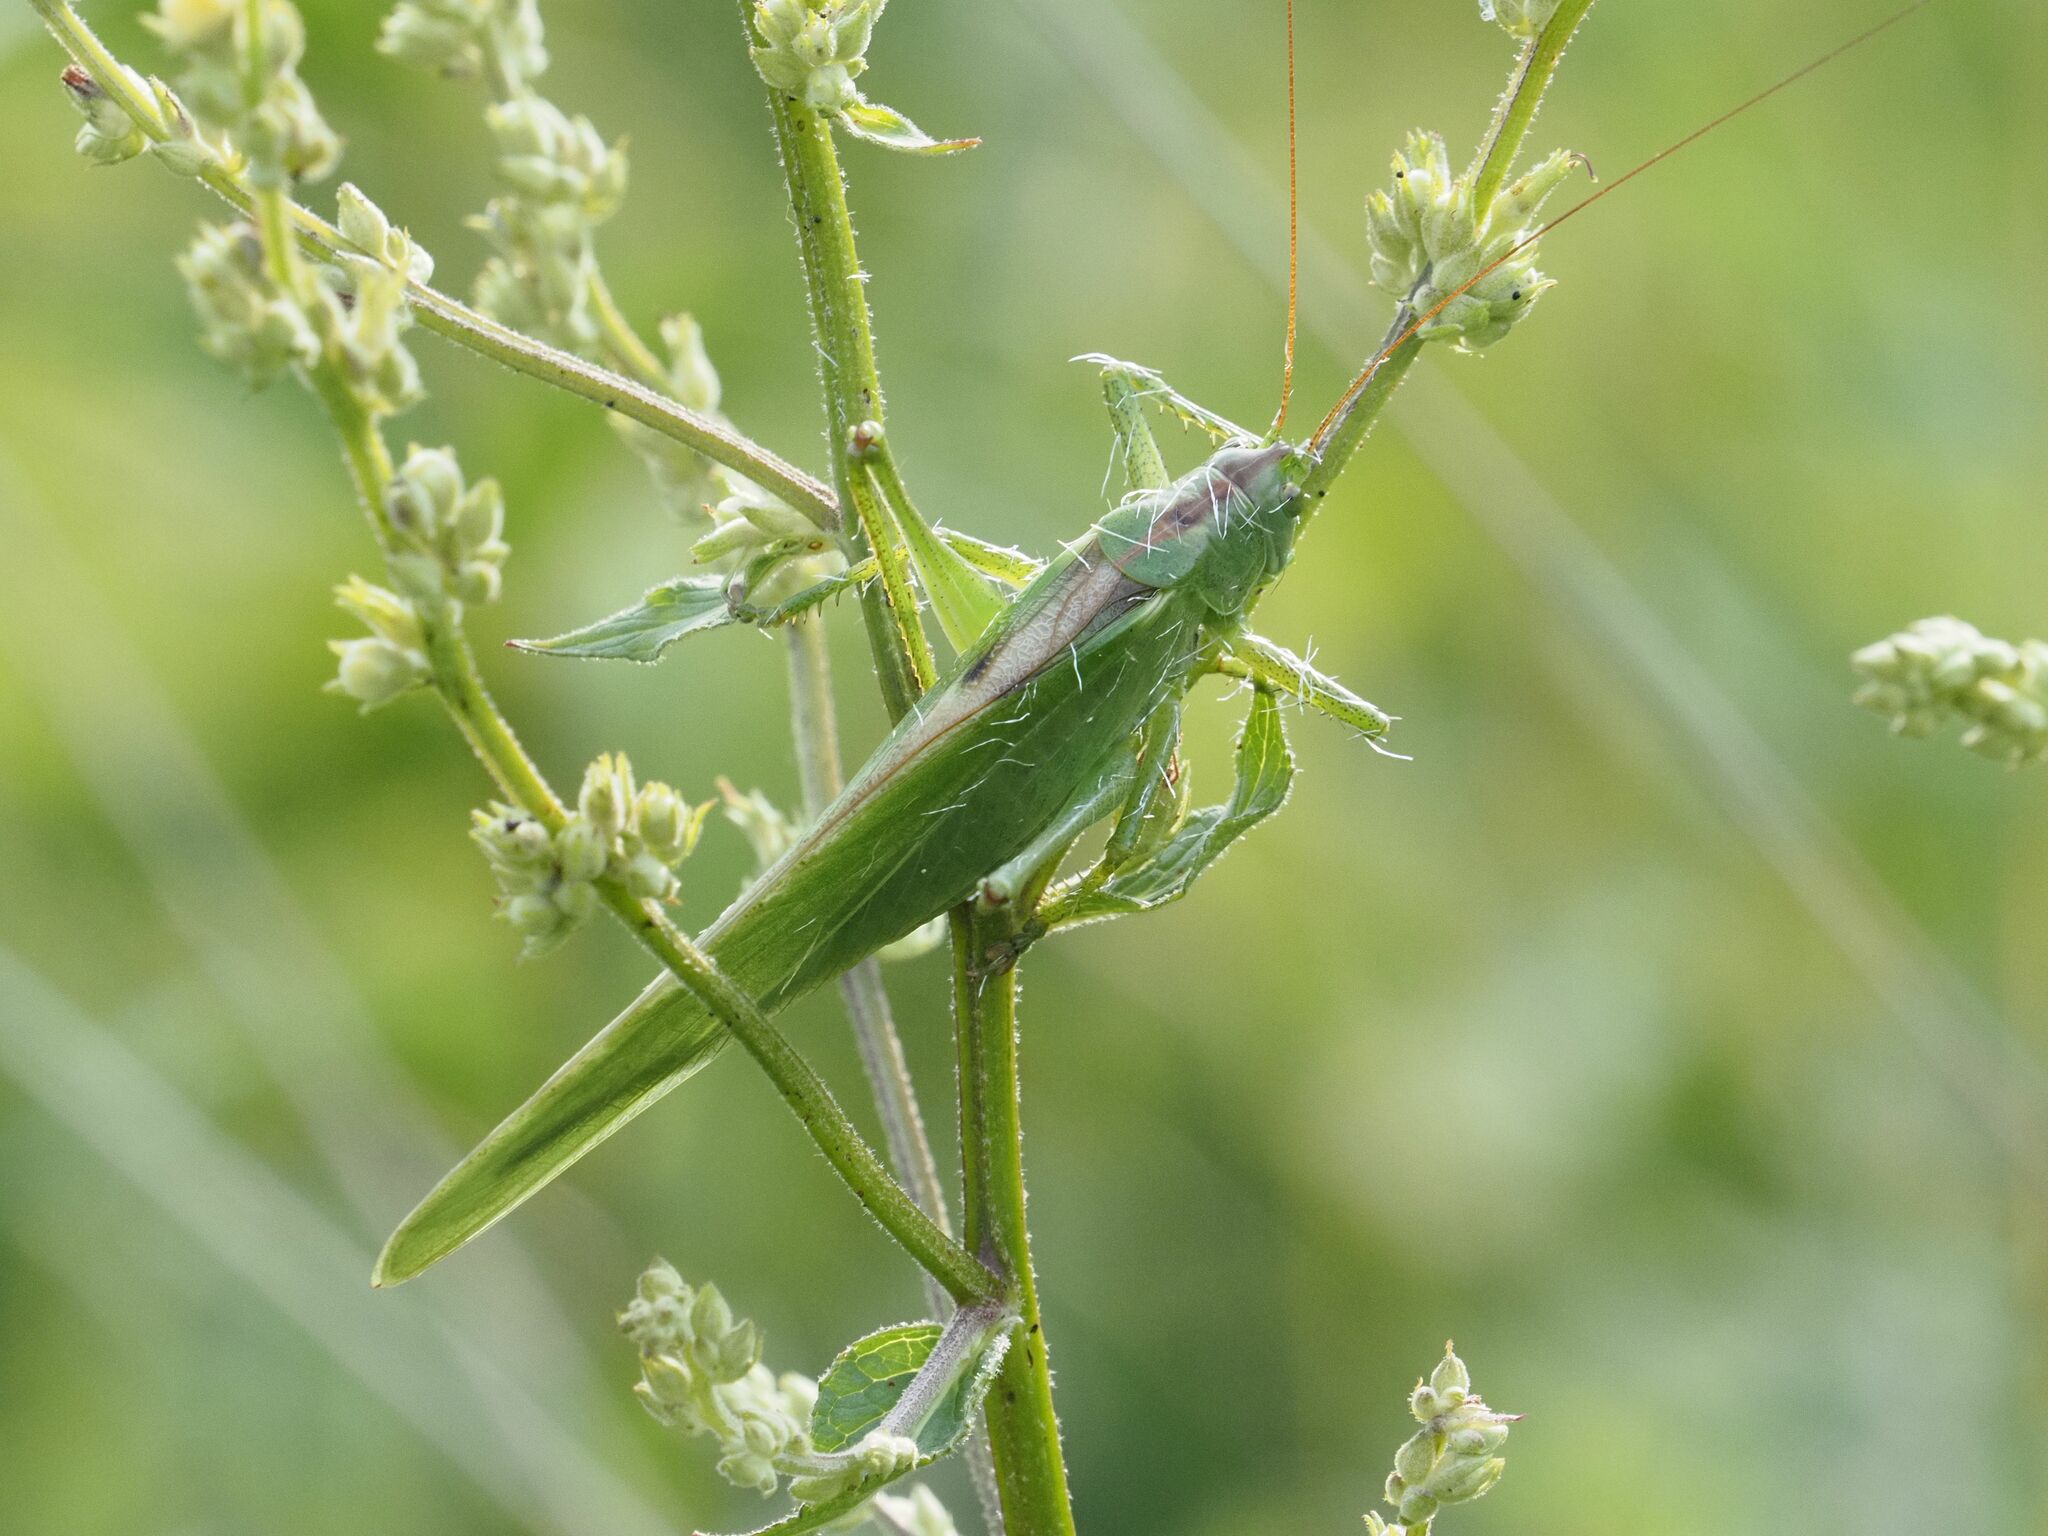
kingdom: Animalia
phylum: Arthropoda
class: Insecta
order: Orthoptera
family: Tettigoniidae
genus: Tettigonia
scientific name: Tettigonia viridissima
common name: Great green bush-cricket
